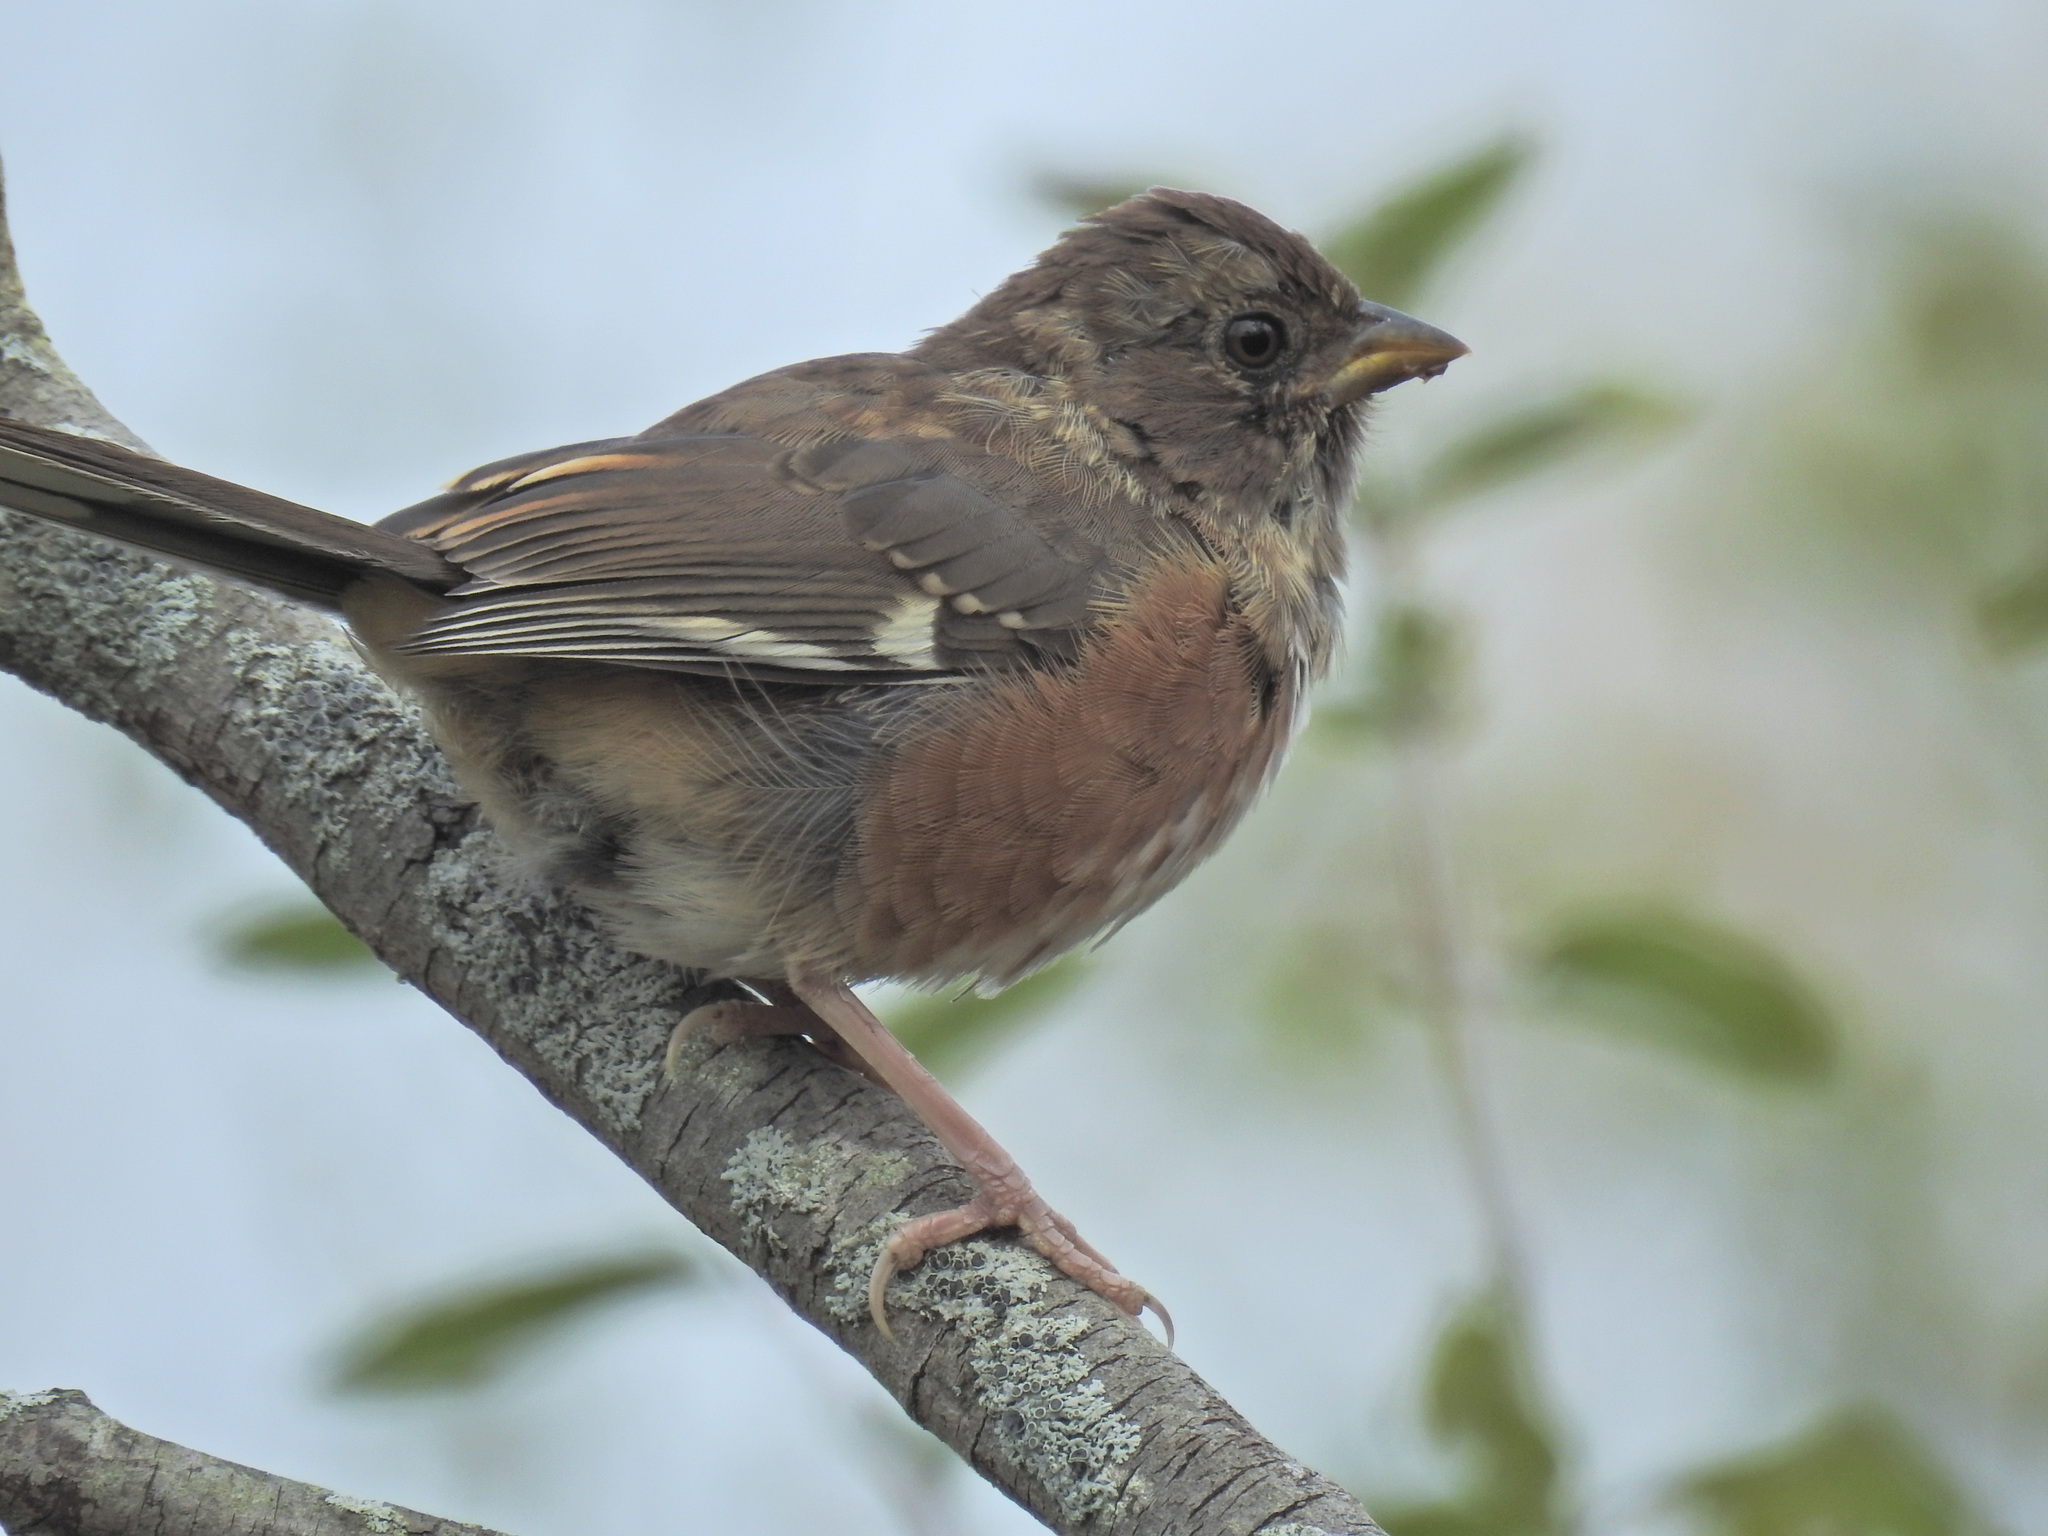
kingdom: Animalia
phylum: Chordata
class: Aves
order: Passeriformes
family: Passerellidae
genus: Pipilo
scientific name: Pipilo erythrophthalmus
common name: Eastern towhee
